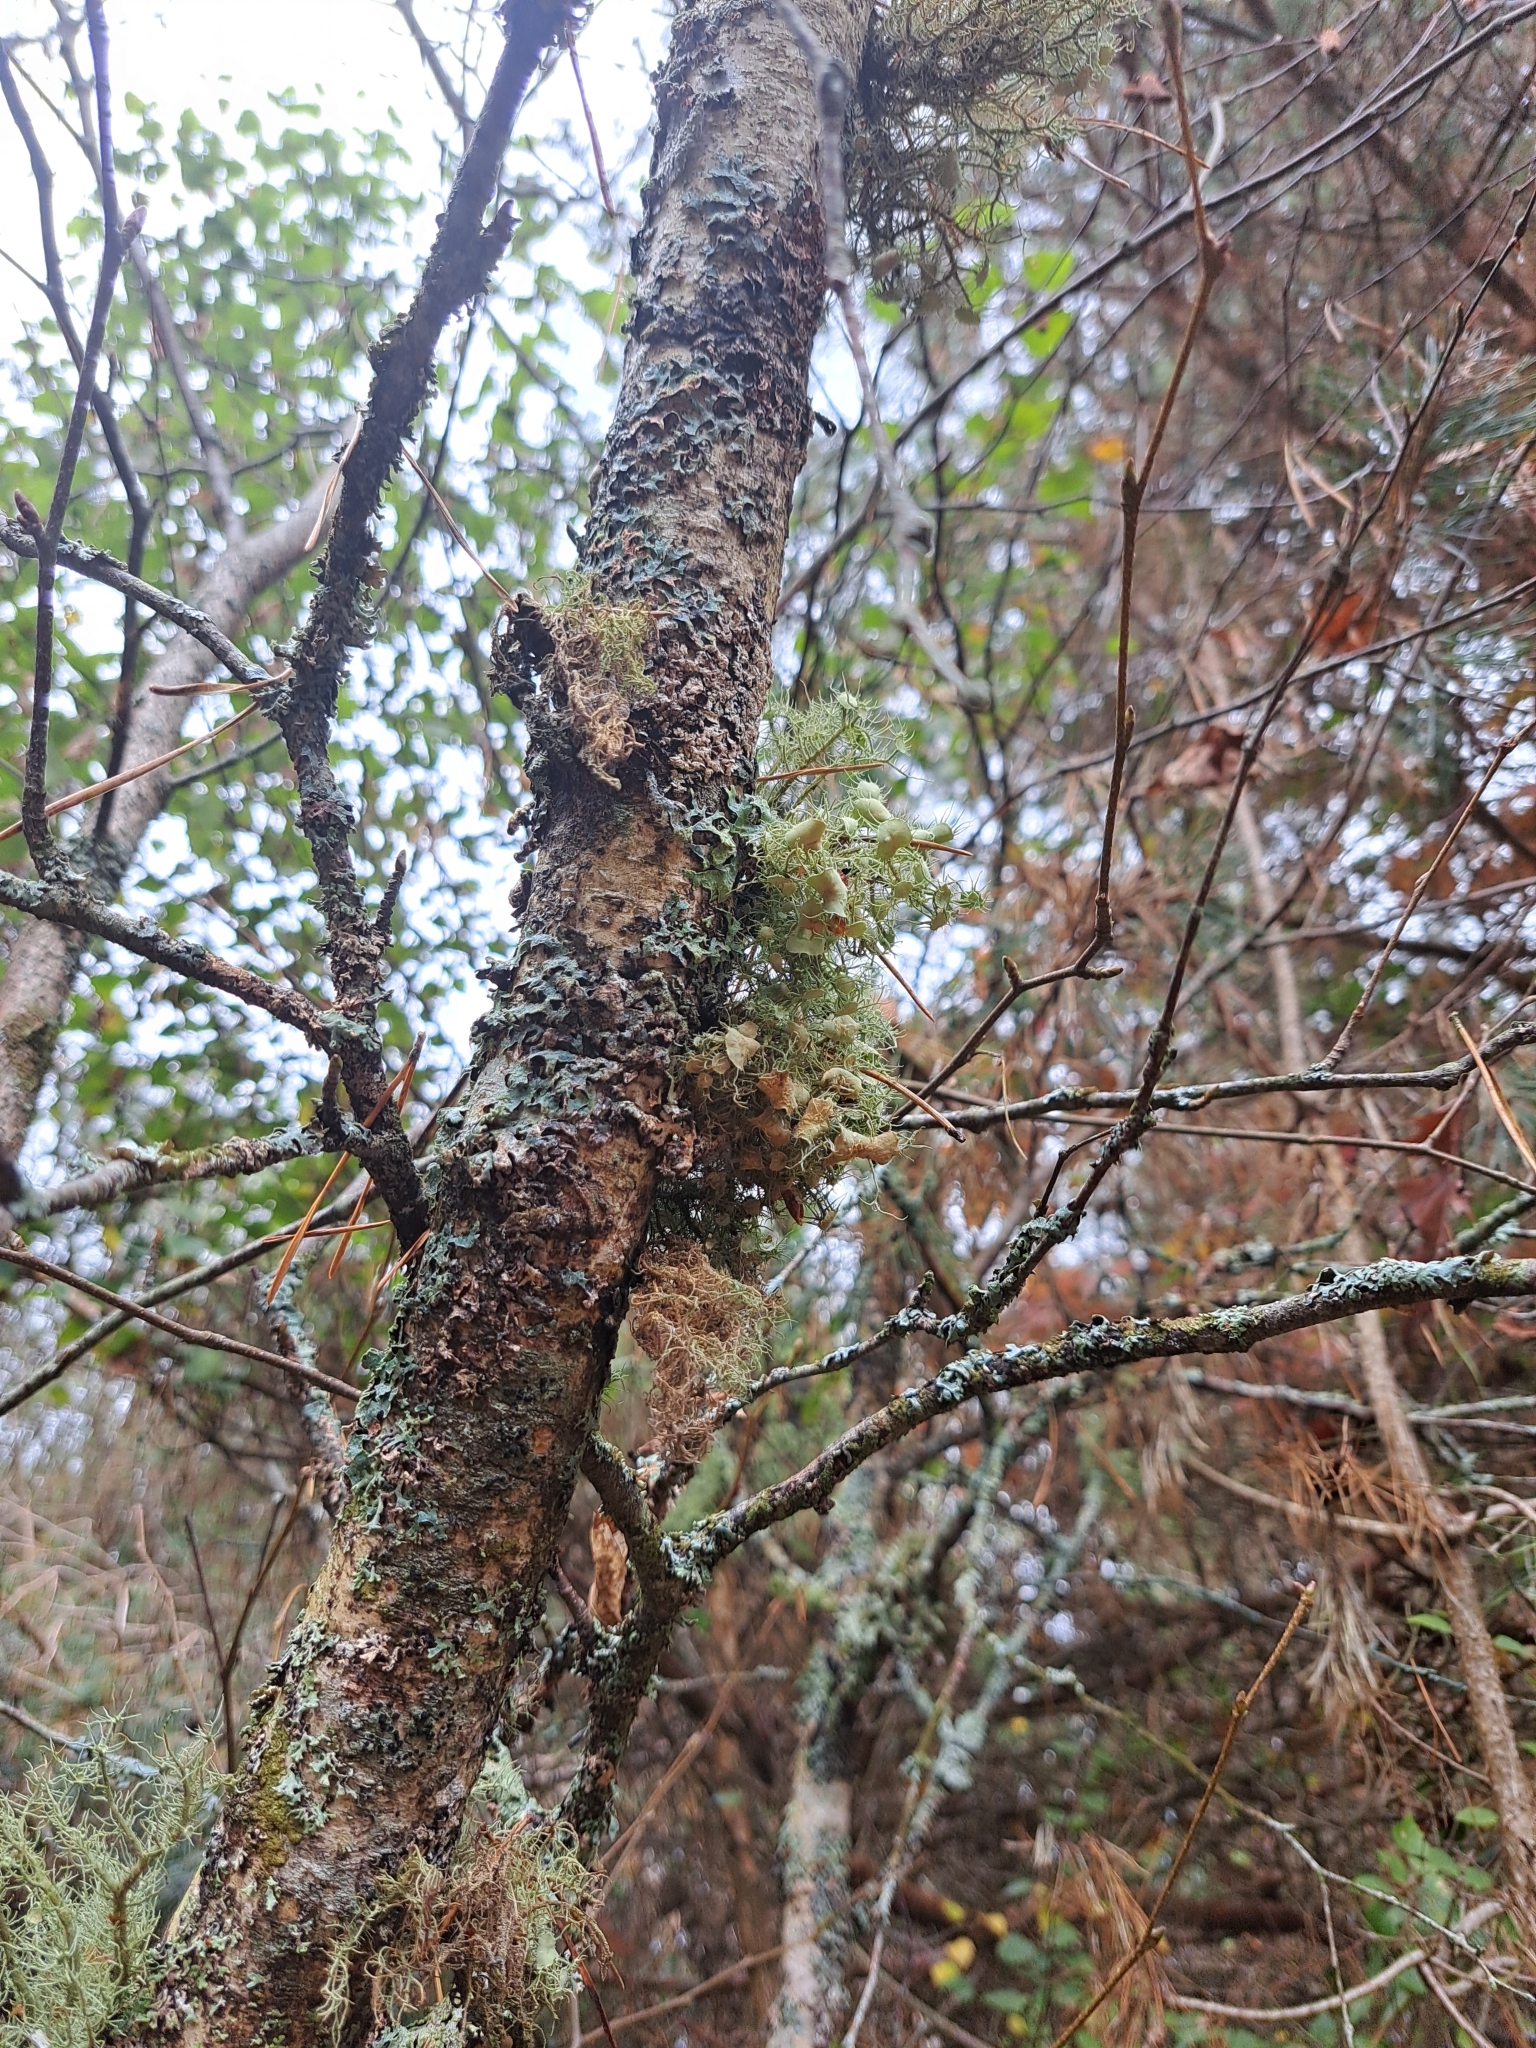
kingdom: Fungi
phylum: Ascomycota
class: Lecanoromycetes
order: Lecanorales
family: Parmeliaceae
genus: Usnea
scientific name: Usnea strigosa
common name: Bushy beard lichen
